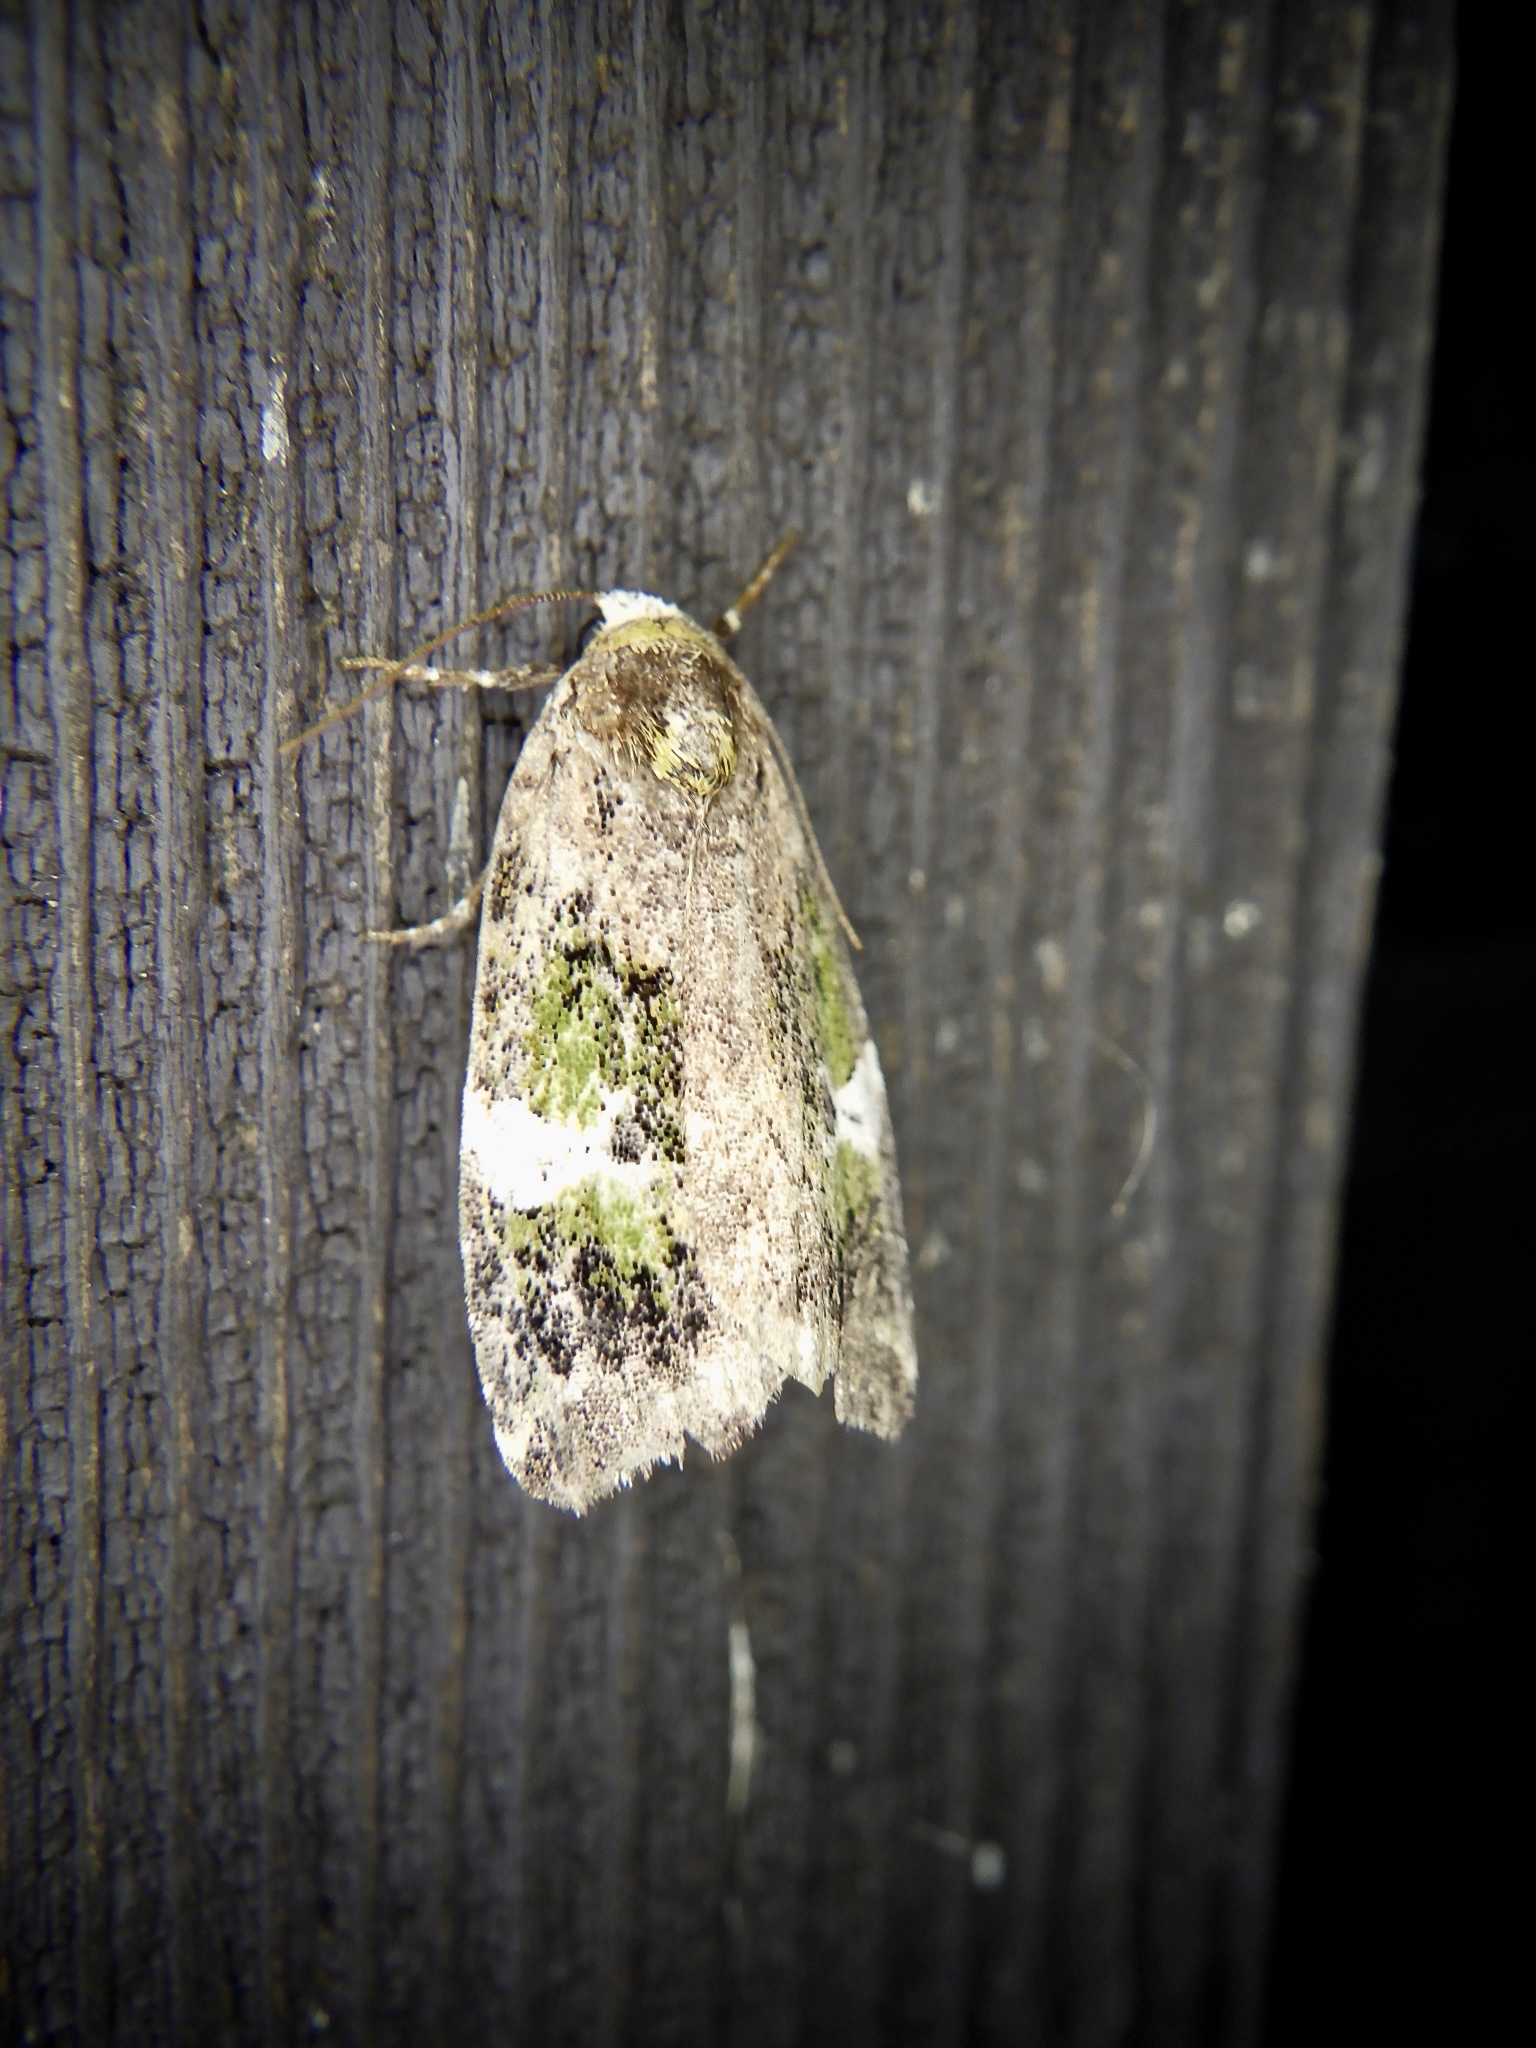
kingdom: Animalia
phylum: Arthropoda
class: Insecta
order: Lepidoptera
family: Noctuidae
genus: Prometopus
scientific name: Prometopus flavicollis
